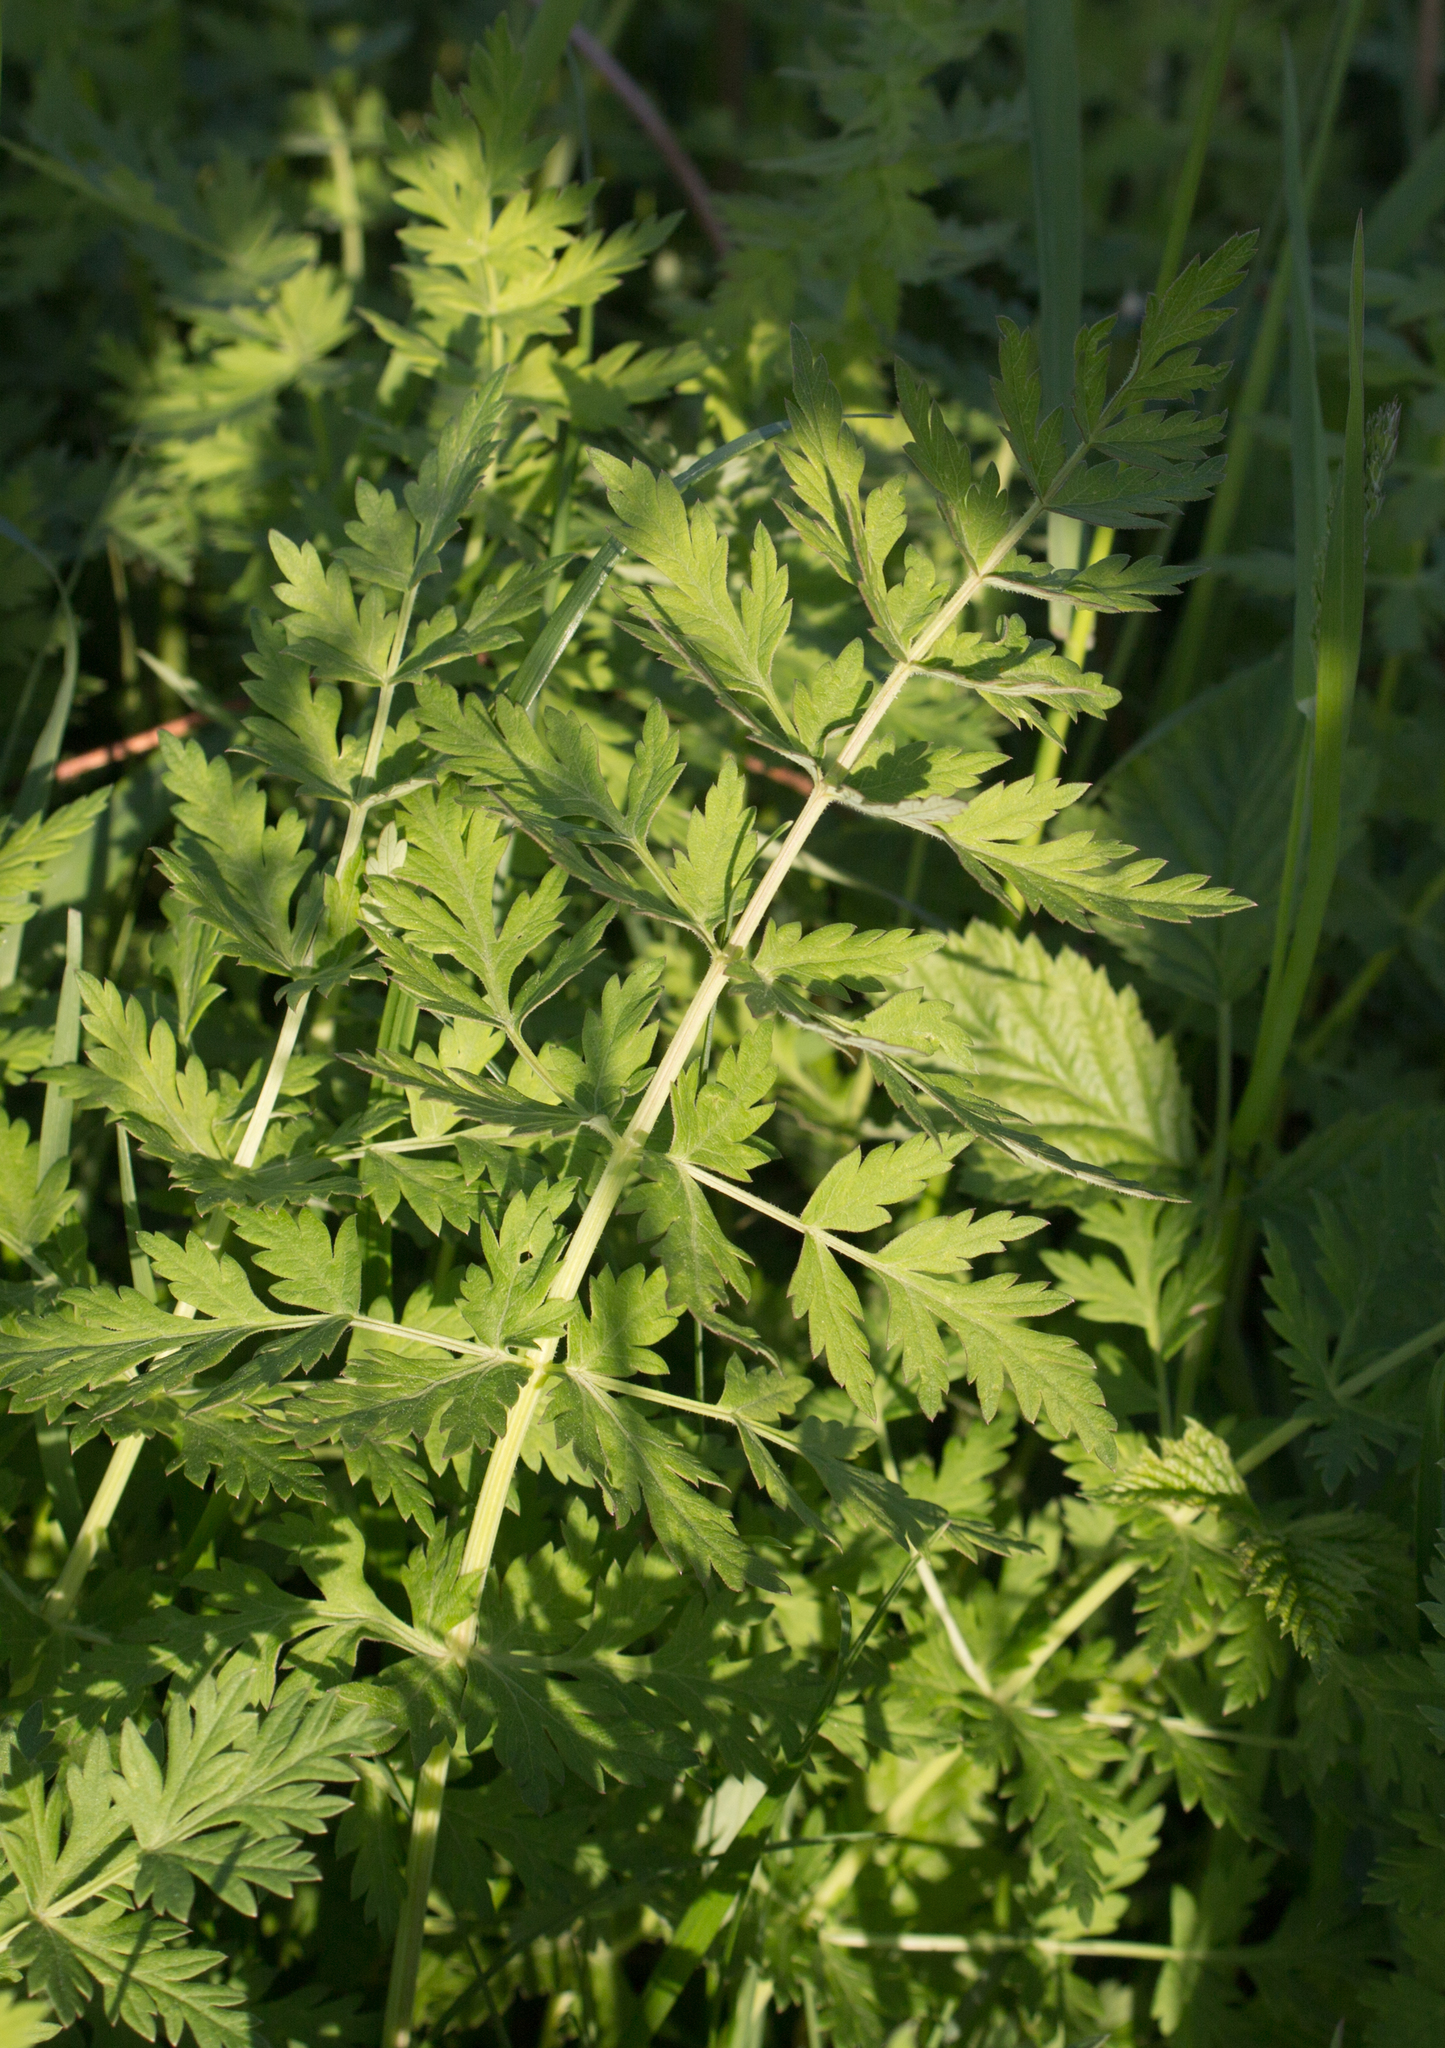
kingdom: Plantae
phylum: Tracheophyta
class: Magnoliopsida
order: Apiales
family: Apiaceae
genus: Seseli
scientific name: Seseli libanotis
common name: Mooncarrot
